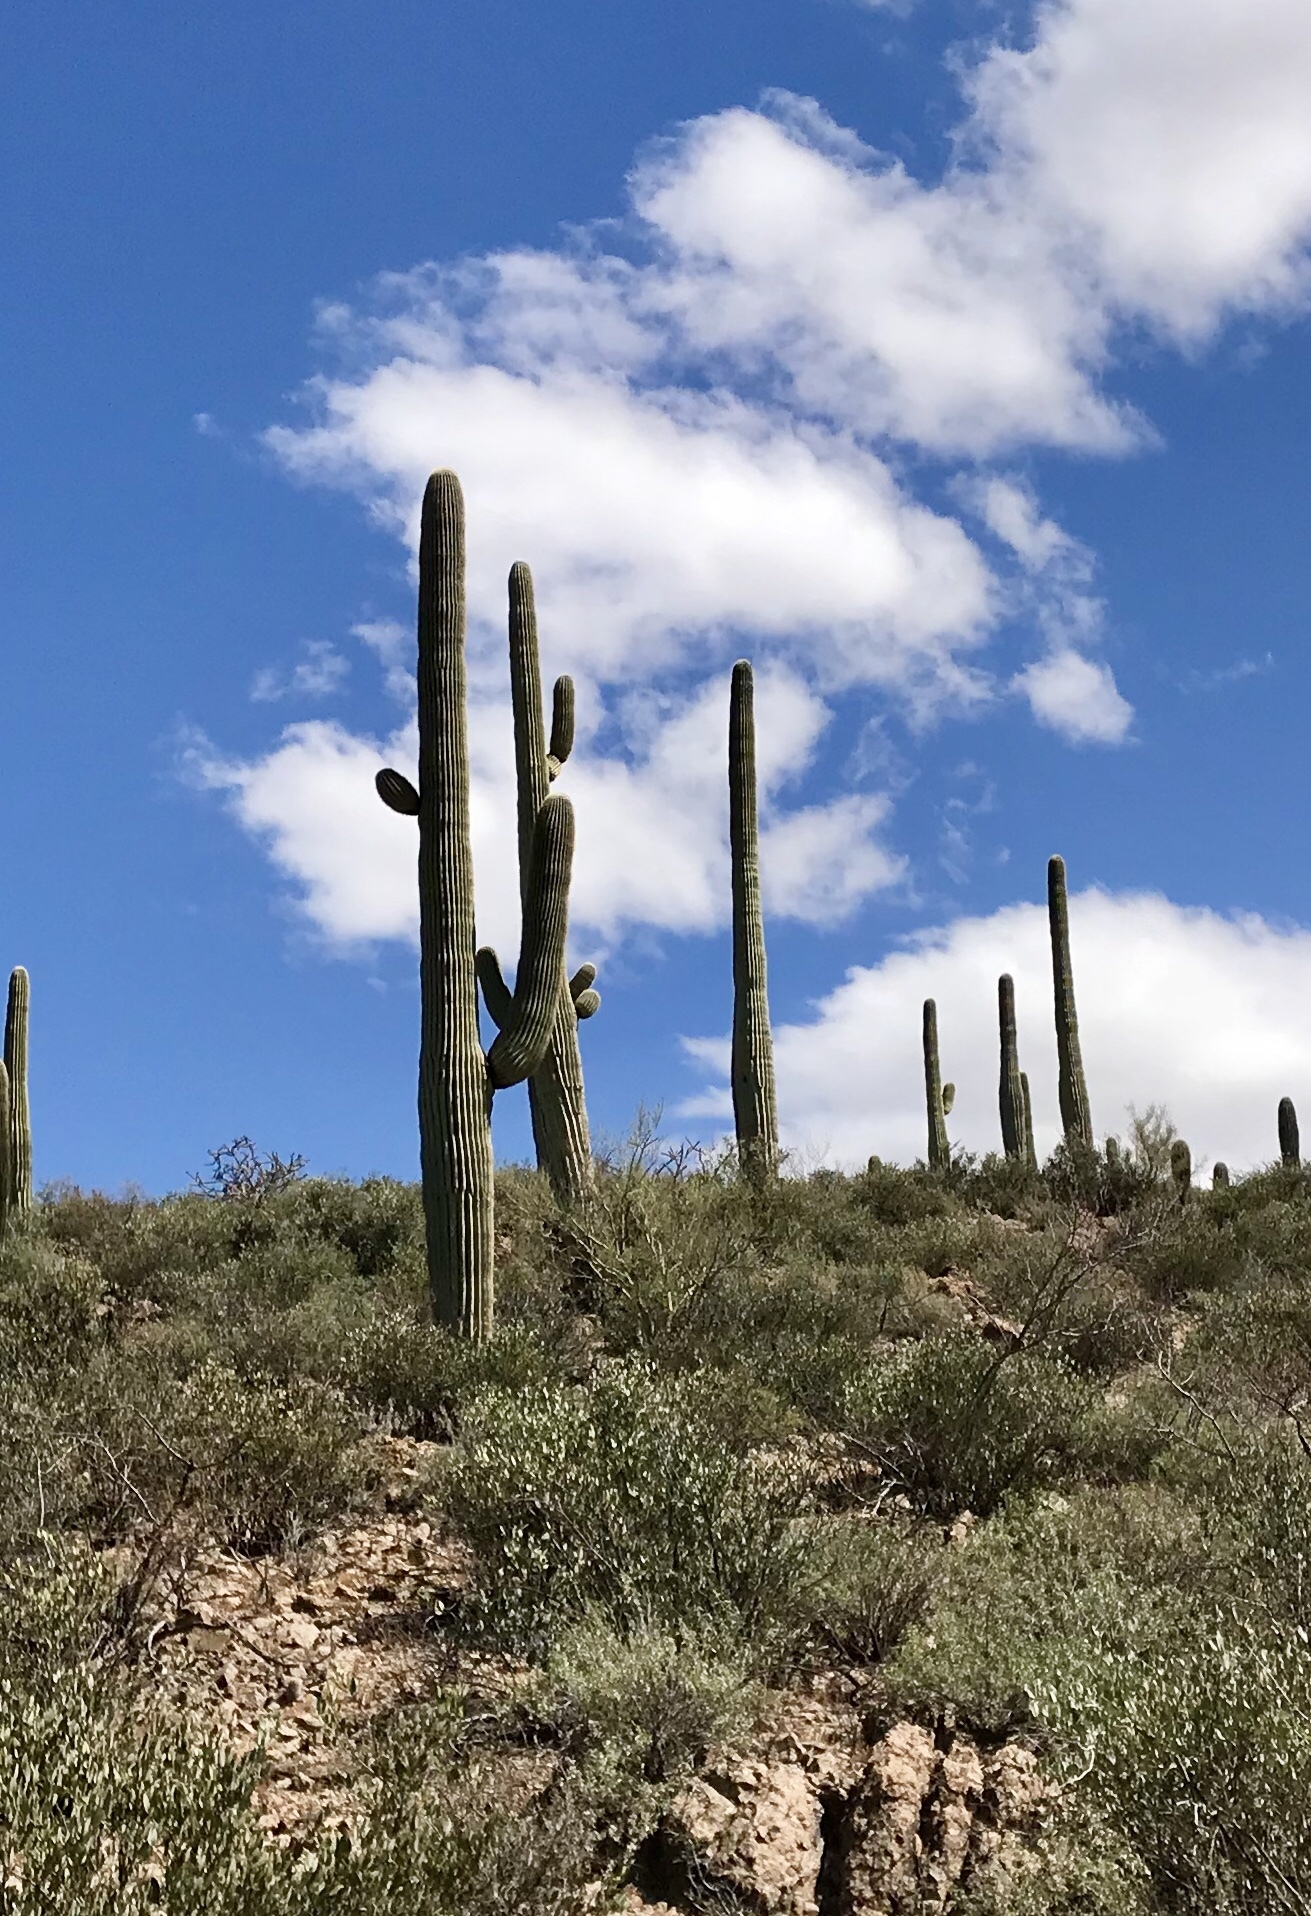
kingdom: Plantae
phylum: Tracheophyta
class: Magnoliopsida
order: Caryophyllales
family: Cactaceae
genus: Carnegiea
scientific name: Carnegiea gigantea
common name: Saguaro
